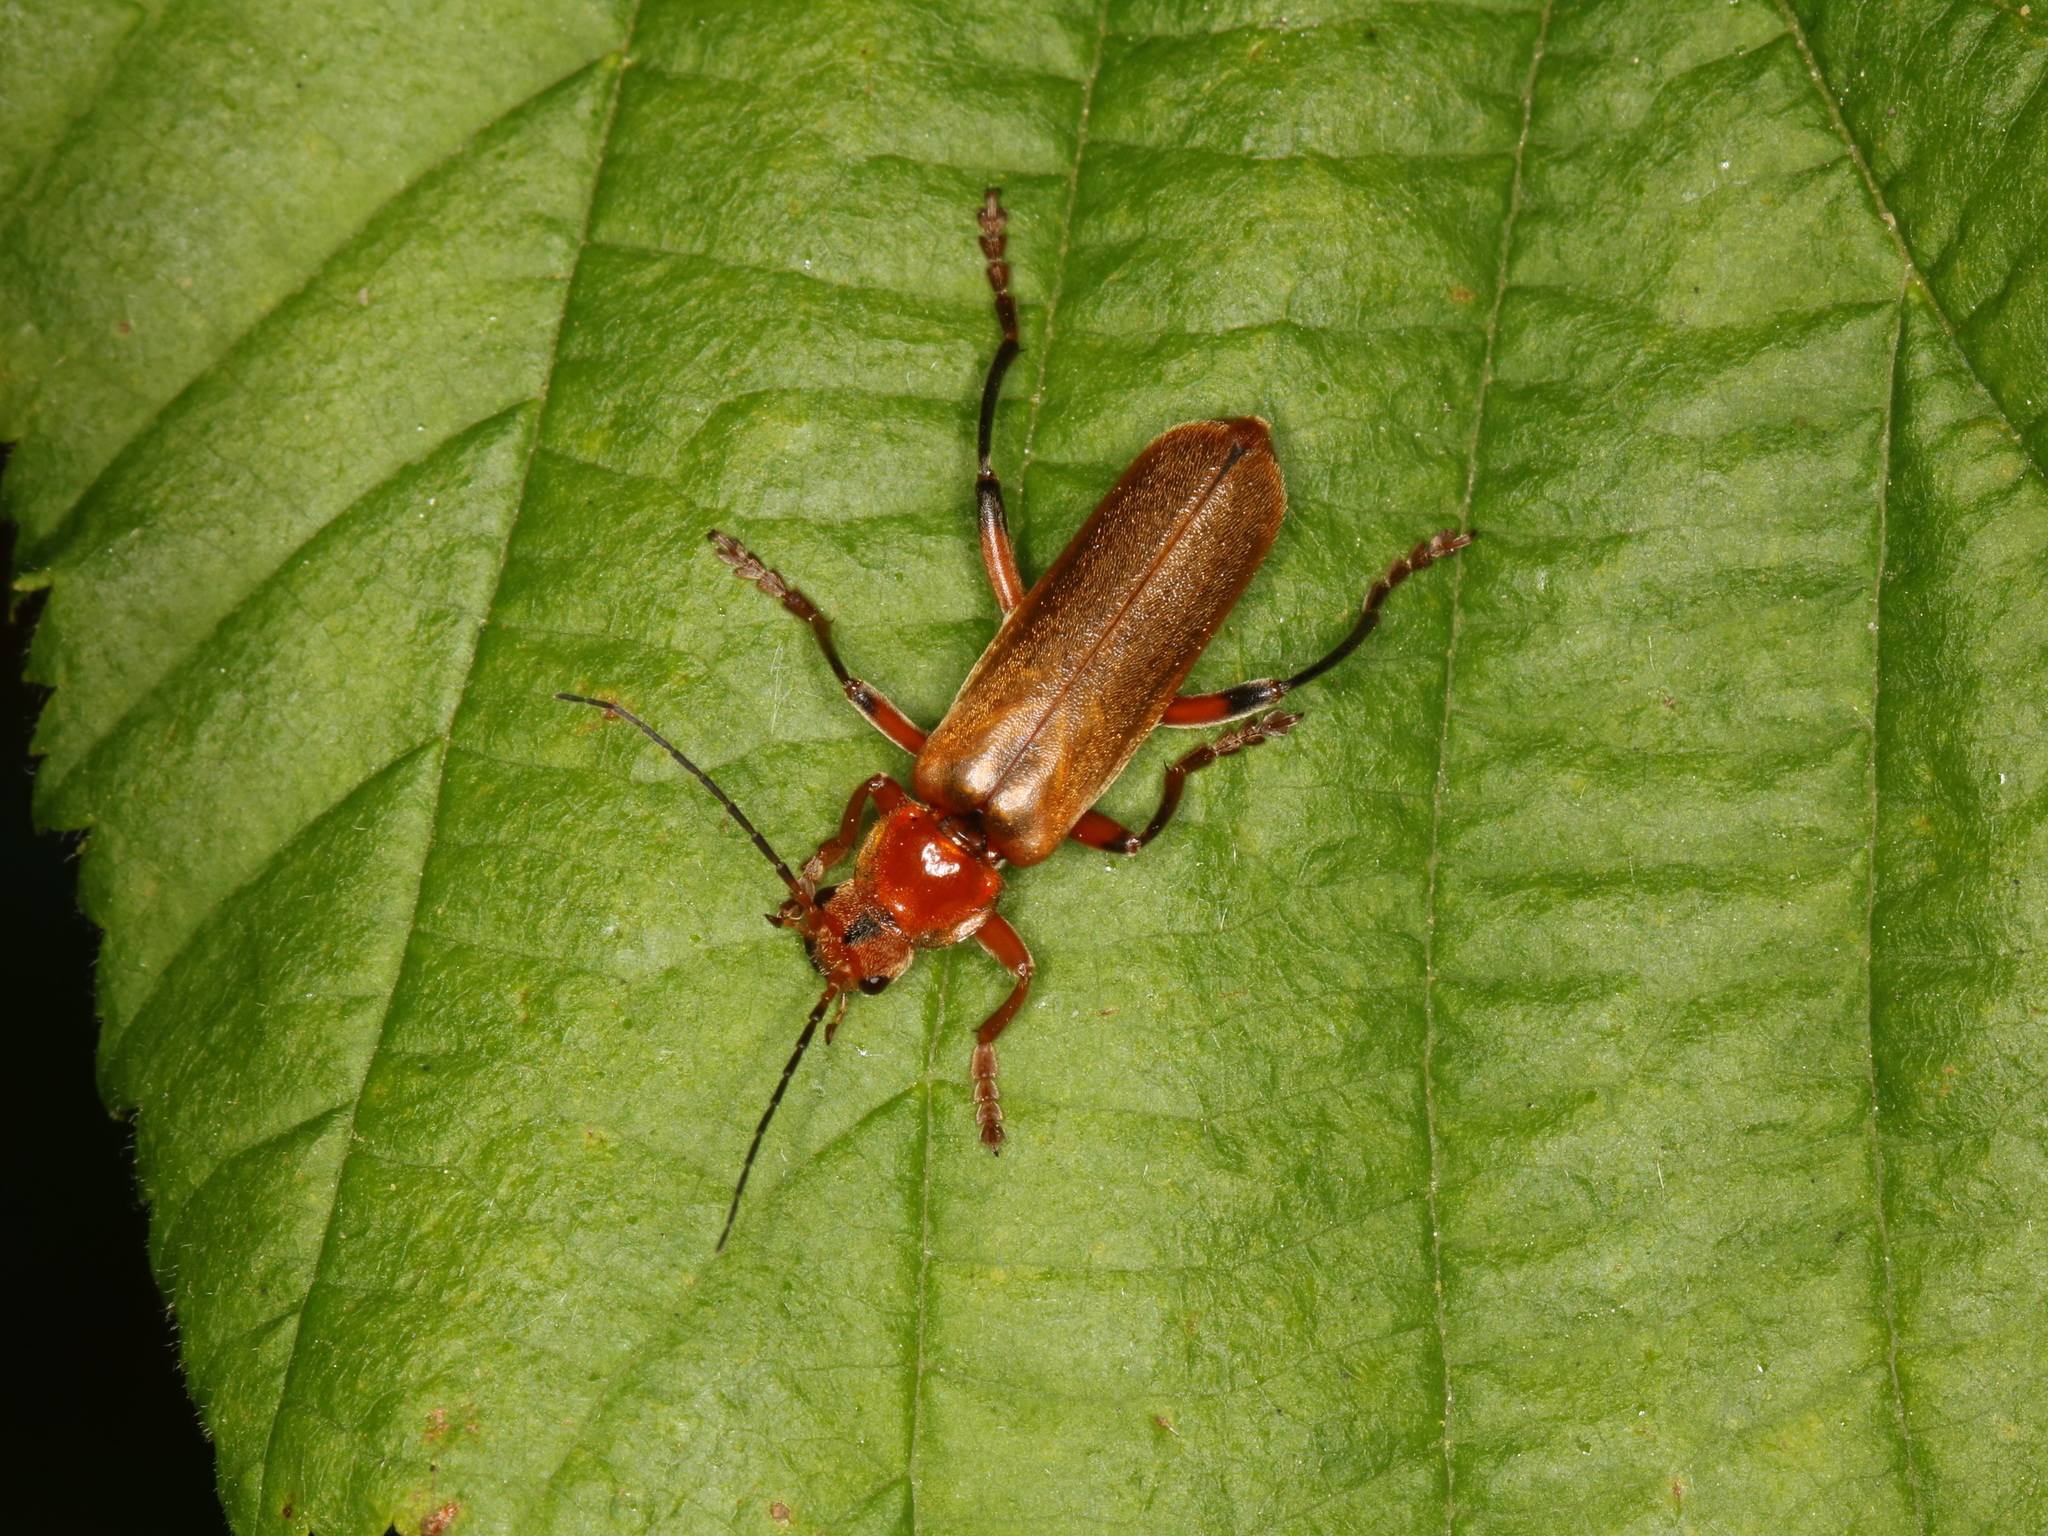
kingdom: Animalia
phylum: Arthropoda
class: Insecta
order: Coleoptera
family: Cantharidae
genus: Cantharis
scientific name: Cantharis livida
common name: Livid soldier beetle
